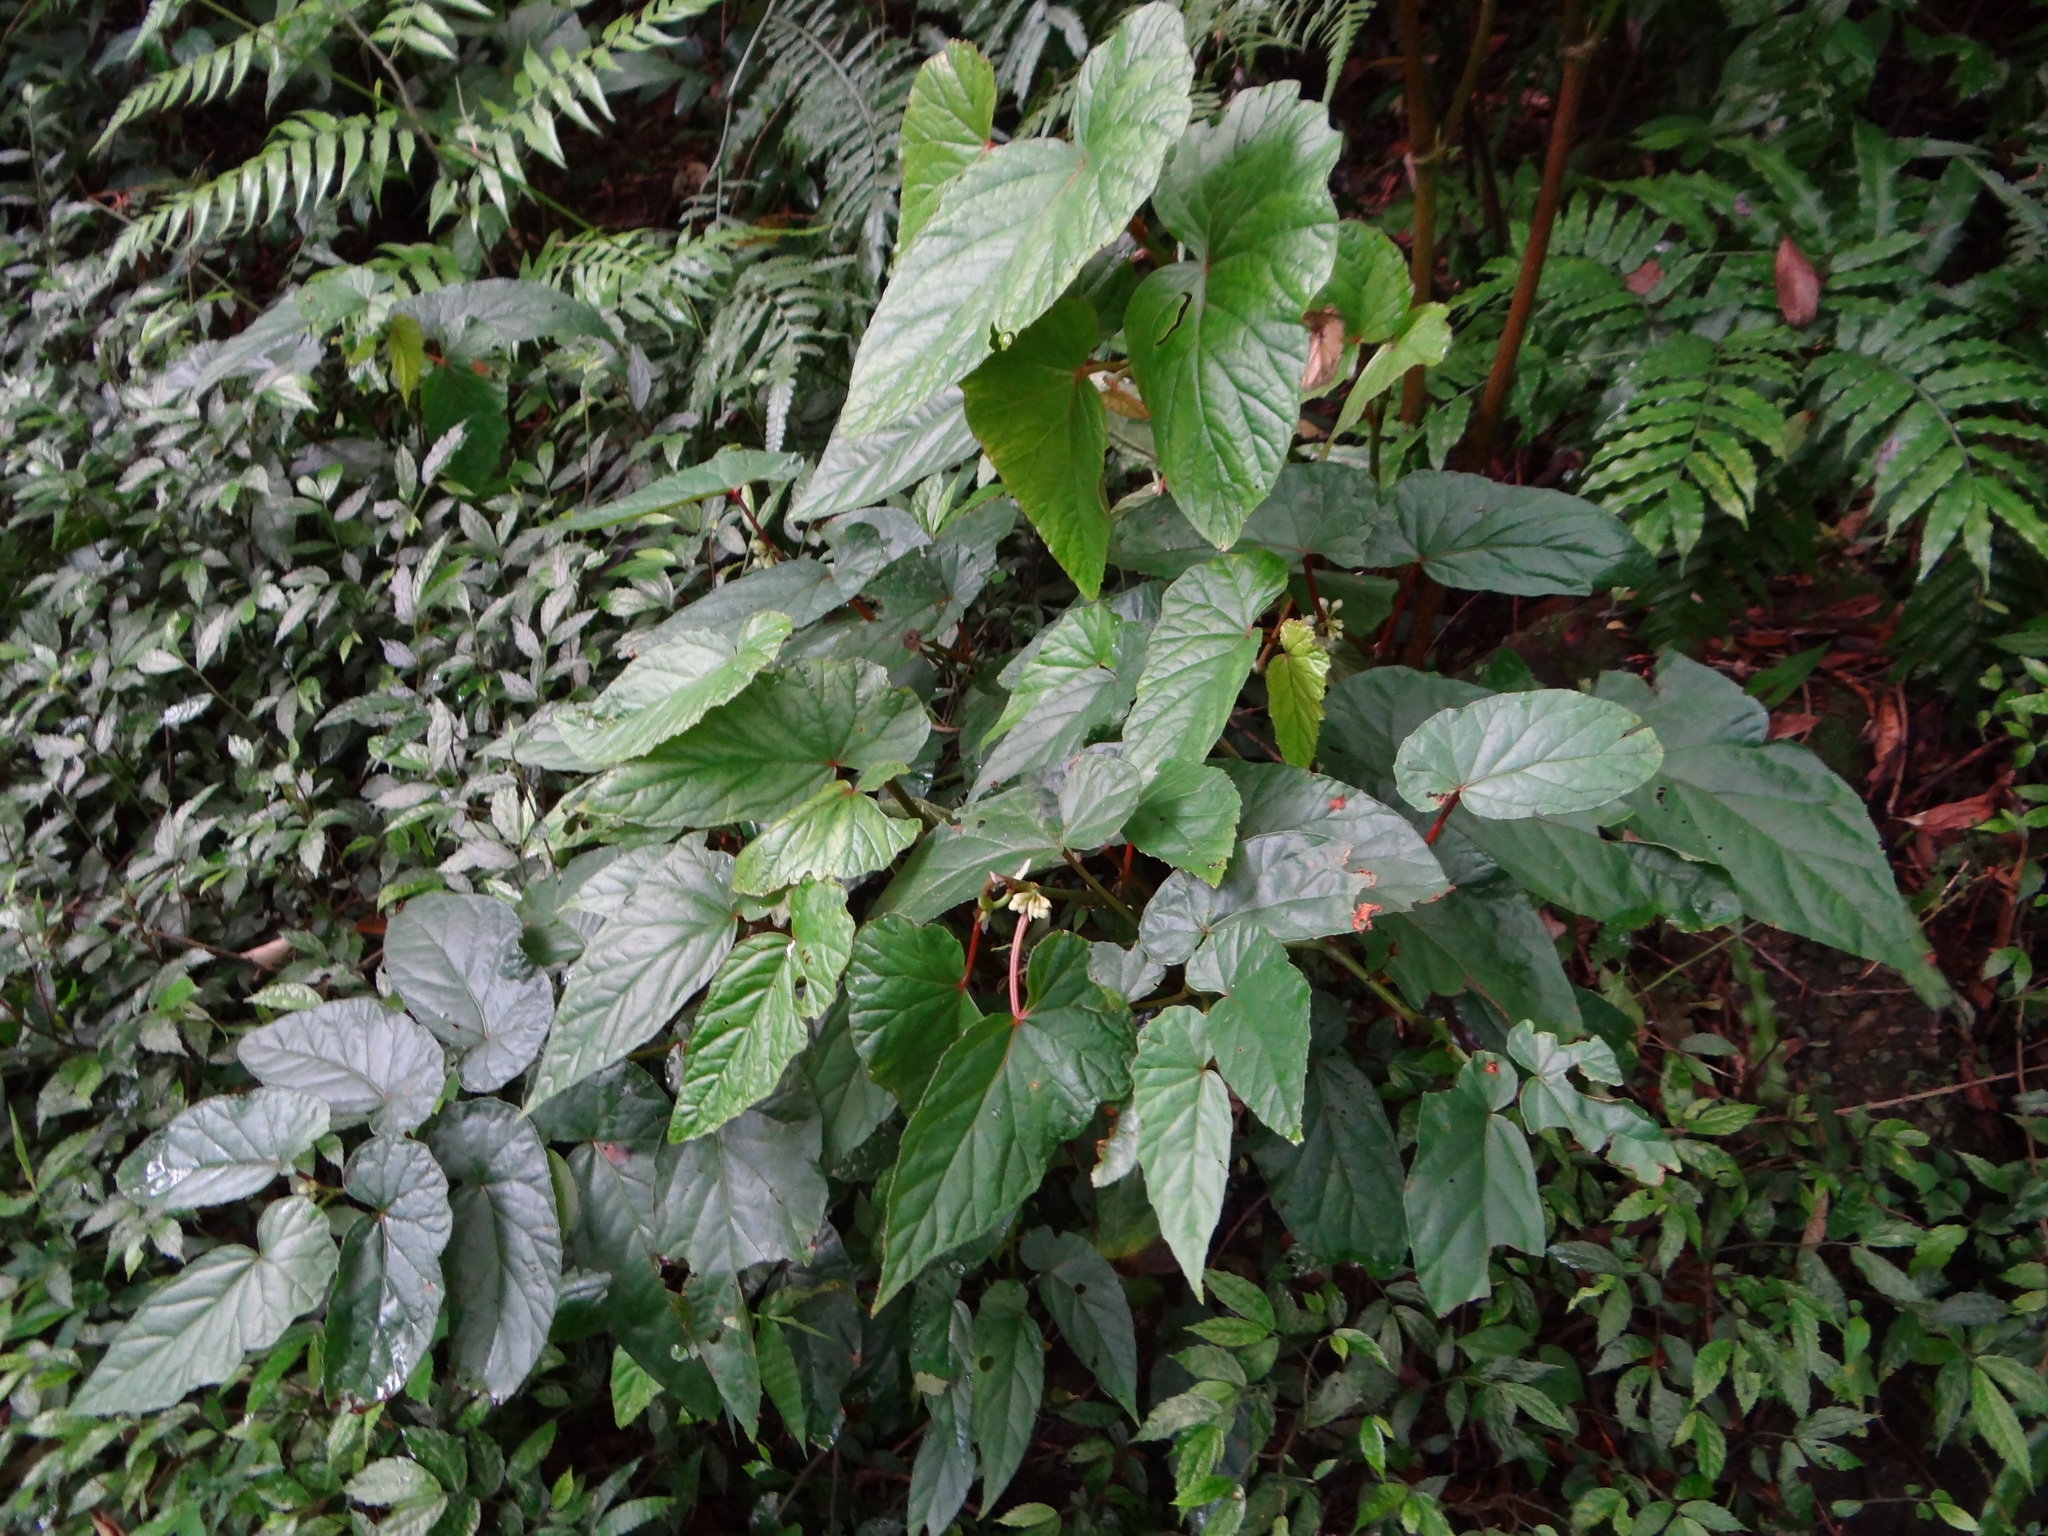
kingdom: Plantae
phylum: Tracheophyta
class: Magnoliopsida
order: Cucurbitales
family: Begoniaceae
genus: Begonia
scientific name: Begonia longifolia
